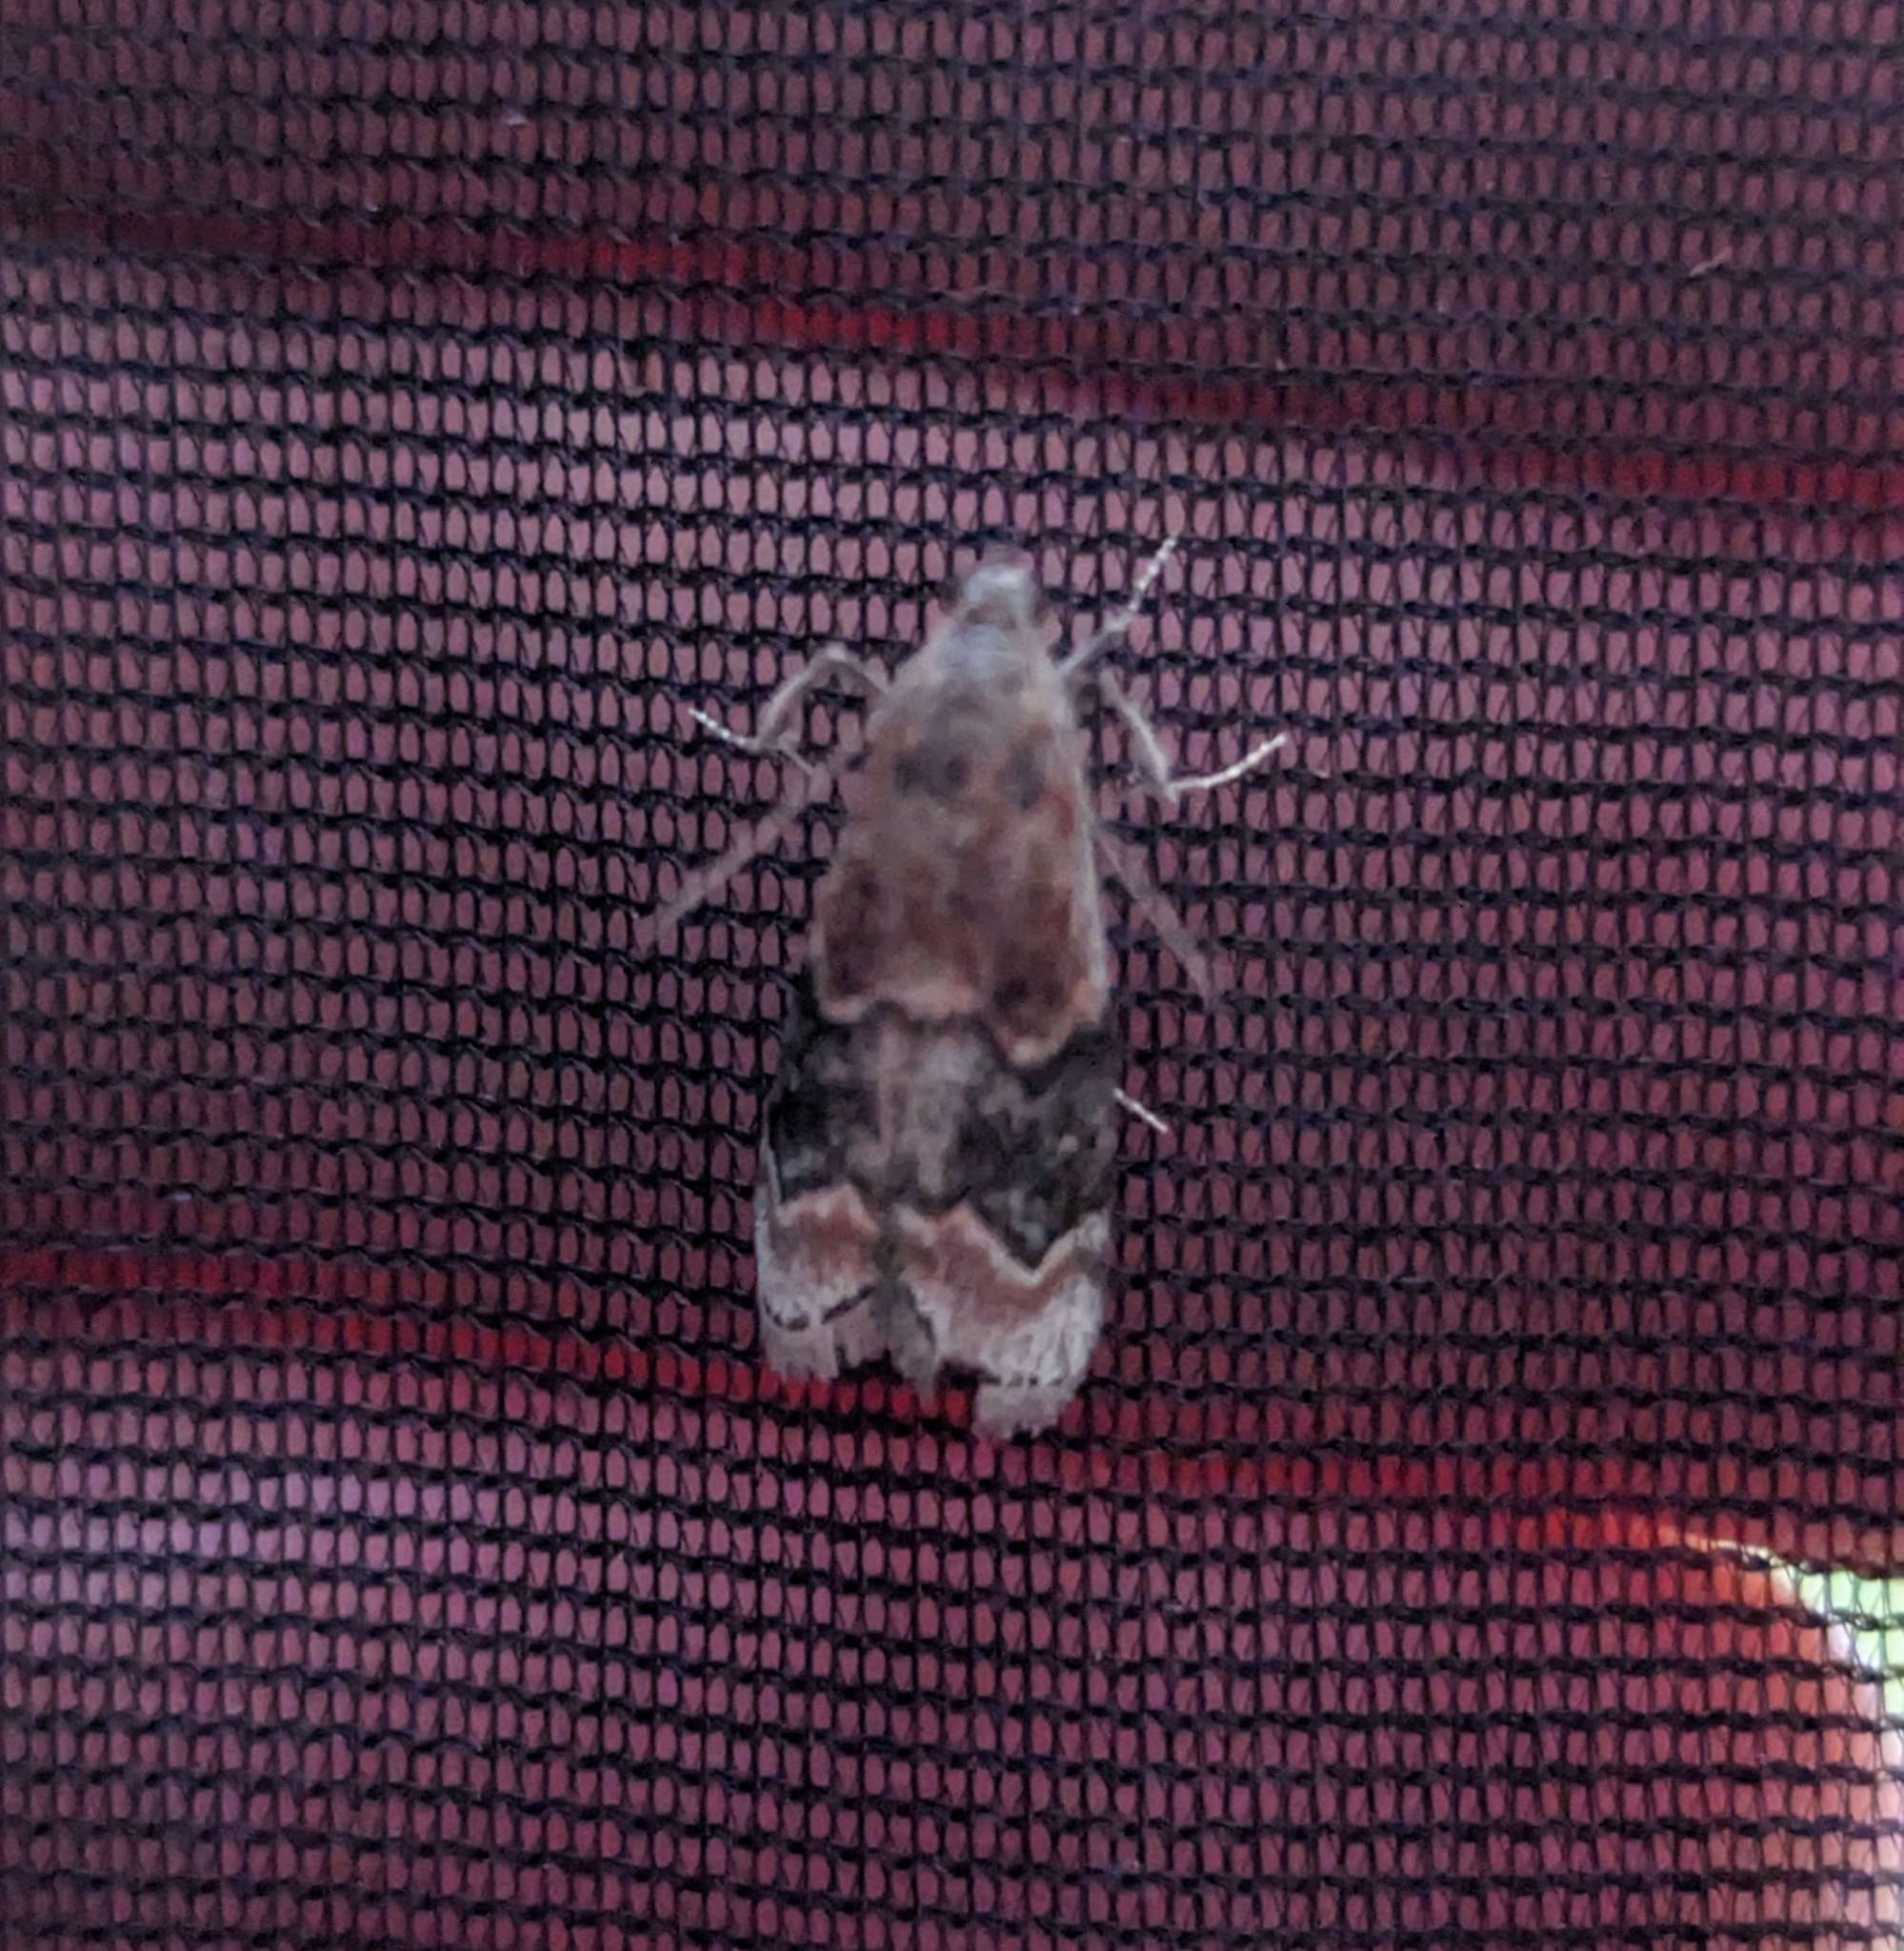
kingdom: Animalia
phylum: Arthropoda
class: Insecta
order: Lepidoptera
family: Pyralidae
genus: Euzophera
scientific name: Euzophera semifuneralis
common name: American plum borer moth
